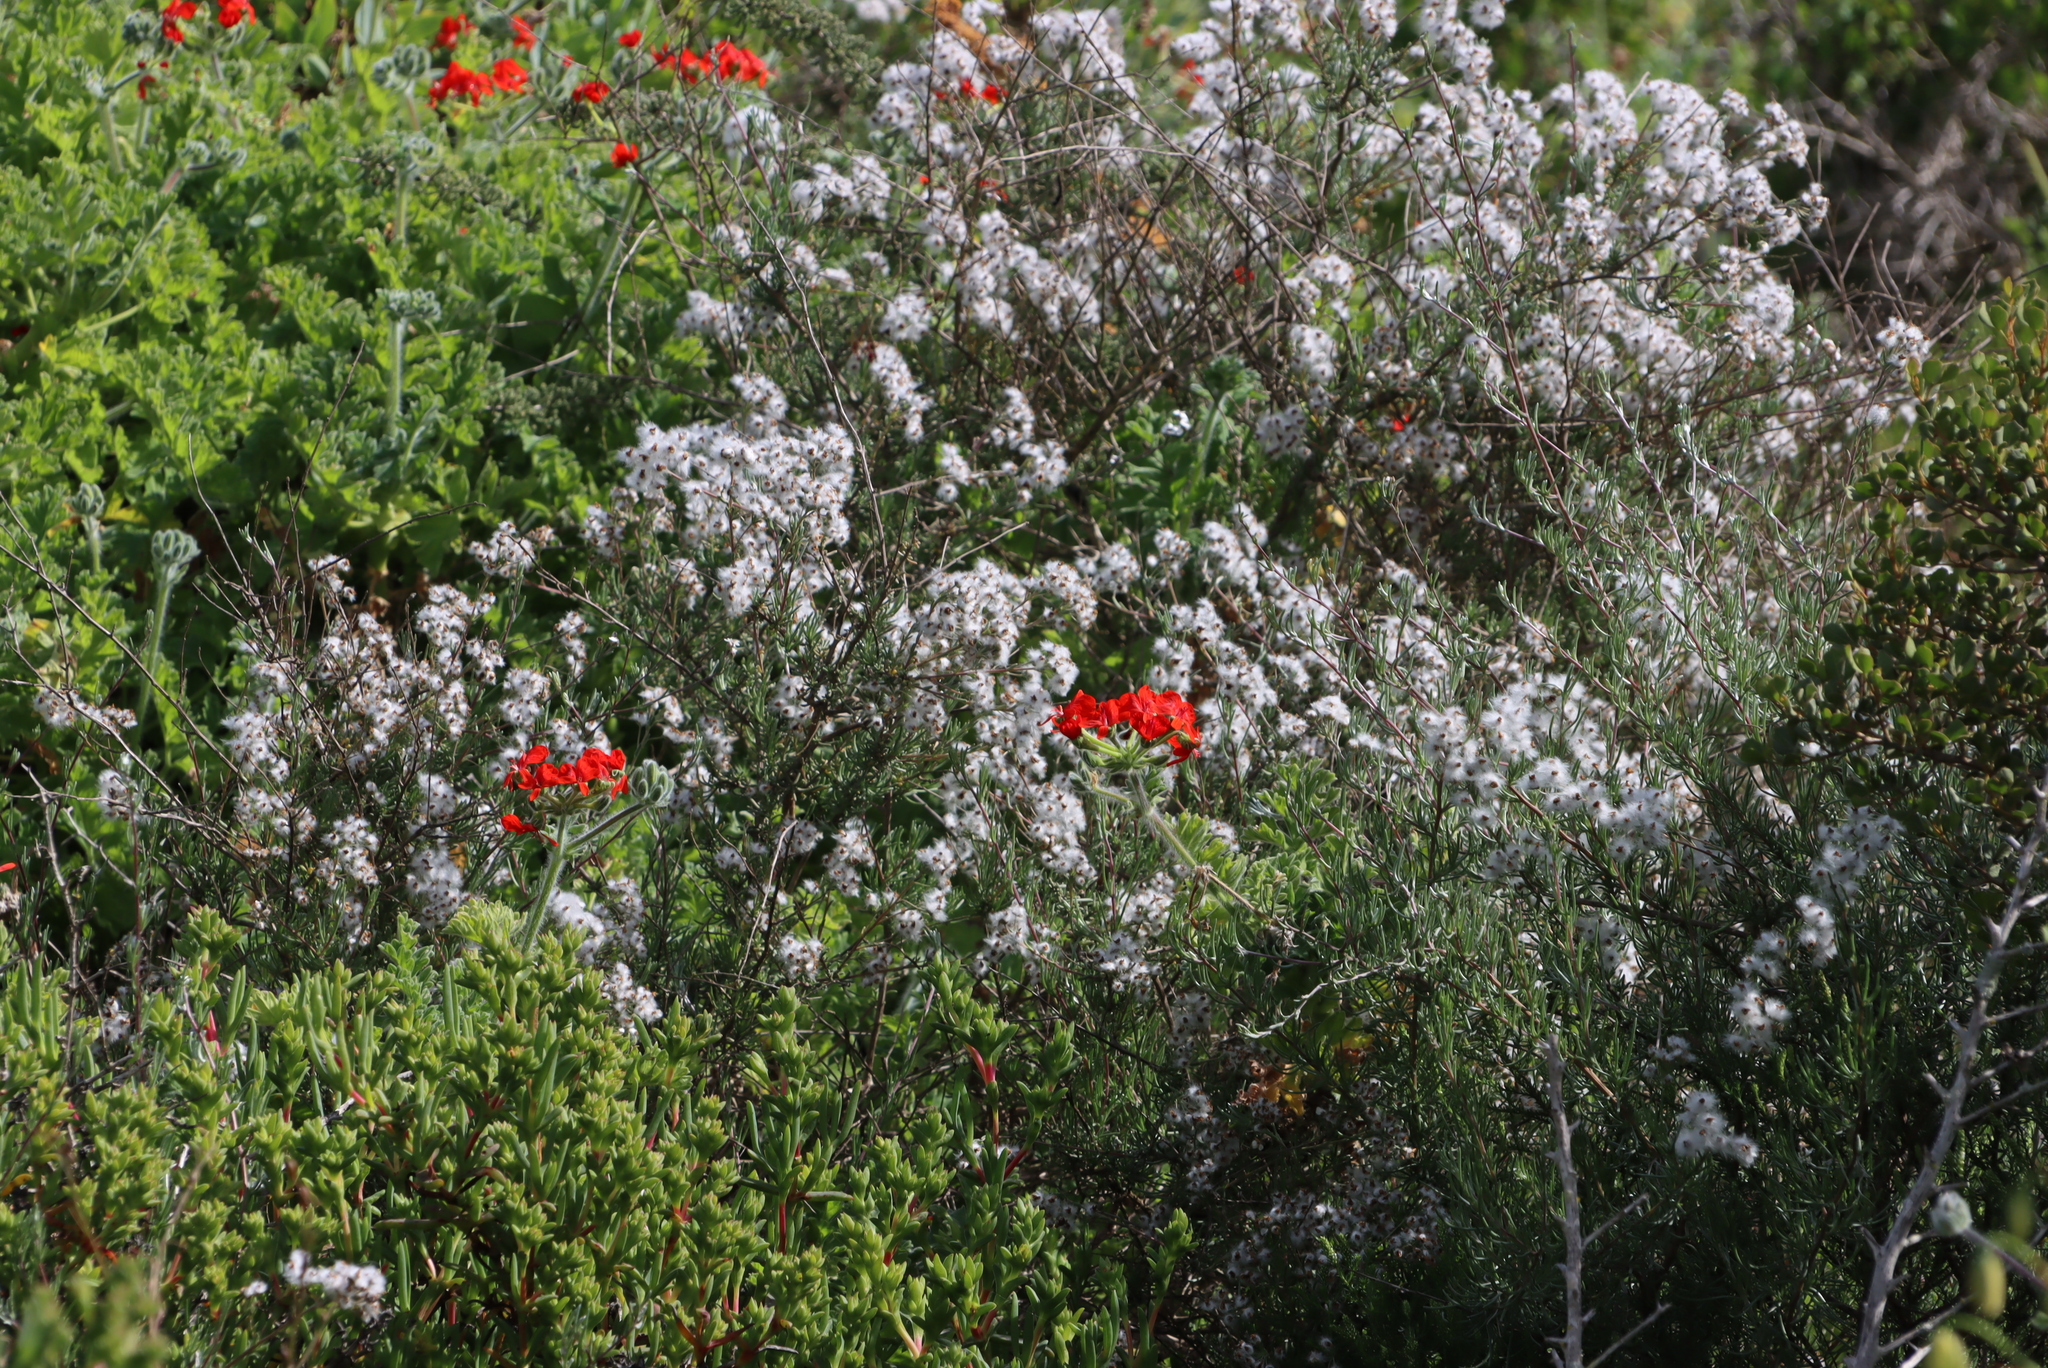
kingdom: Plantae
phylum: Tracheophyta
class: Magnoliopsida
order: Geraniales
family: Geraniaceae
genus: Pelargonium
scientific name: Pelargonium fulgidum
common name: Celandine-leaf pelargonium
